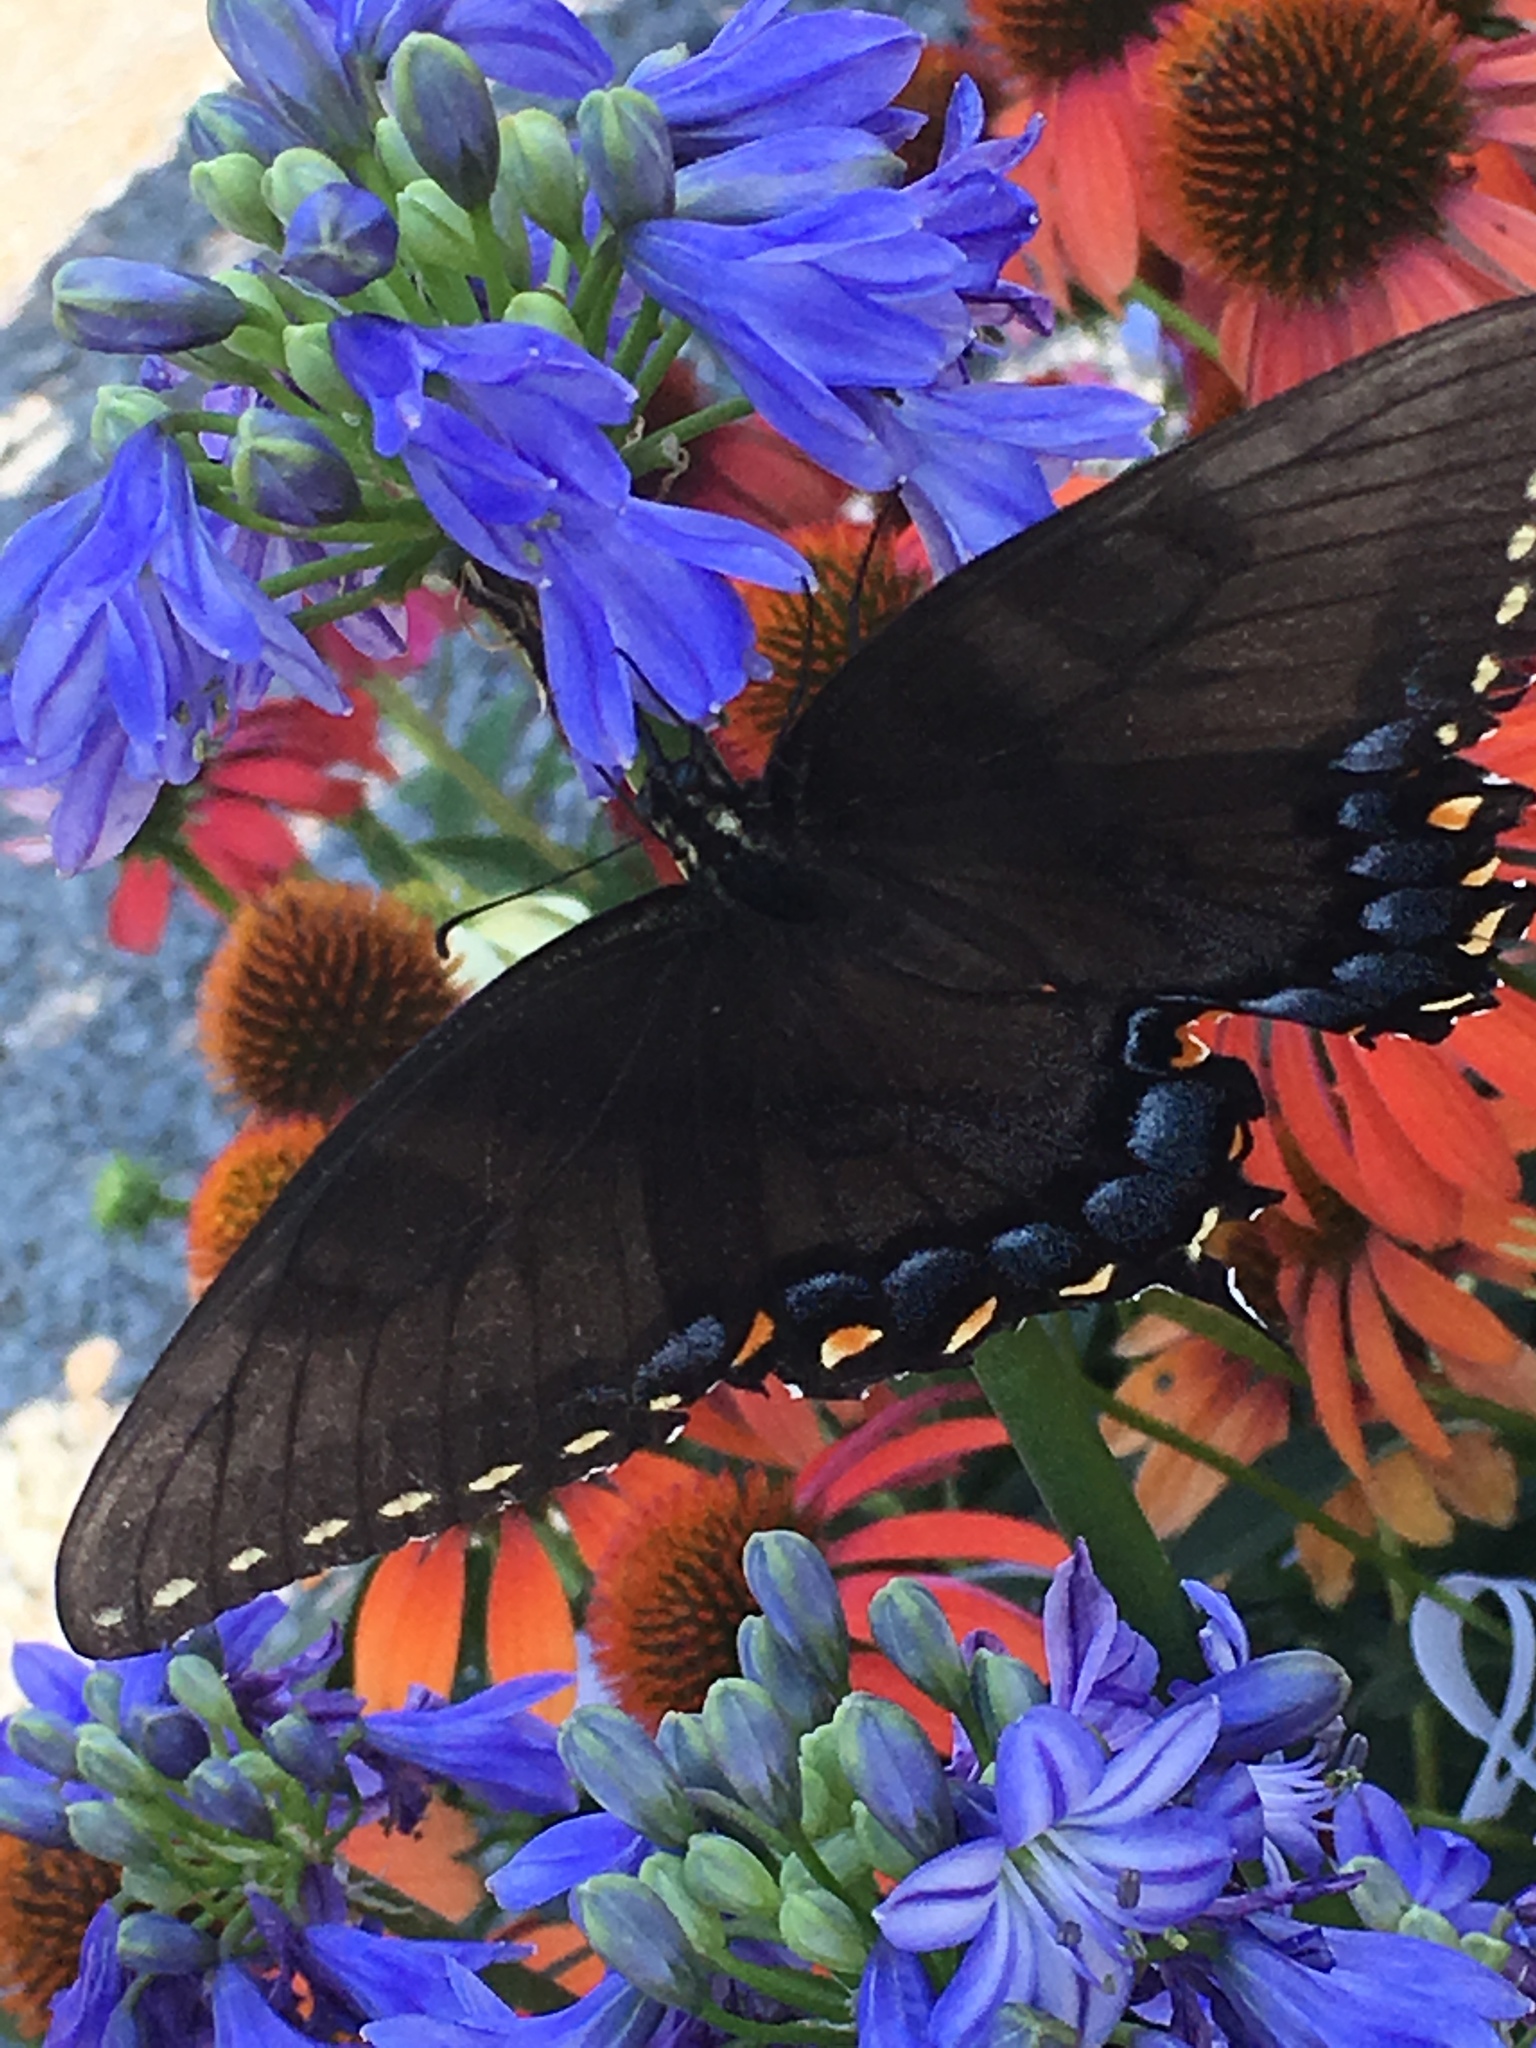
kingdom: Animalia
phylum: Arthropoda
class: Insecta
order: Lepidoptera
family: Papilionidae
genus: Papilio
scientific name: Papilio glaucus
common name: Tiger swallowtail
